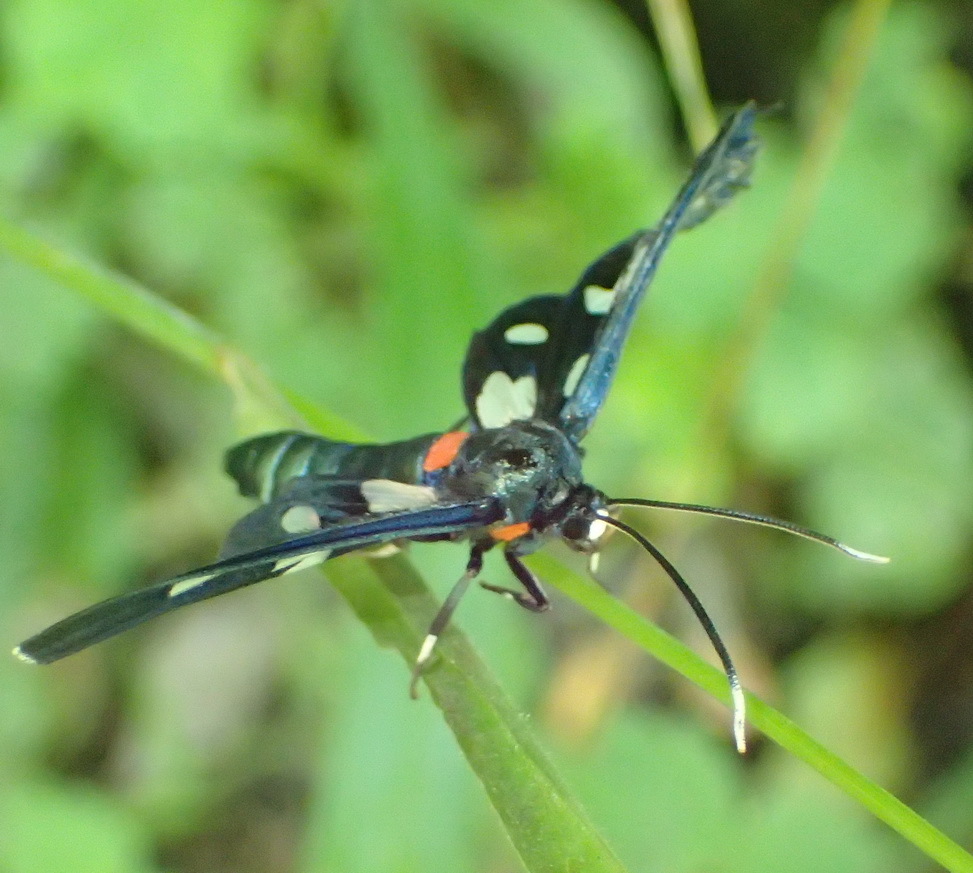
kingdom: Animalia
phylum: Arthropoda
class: Insecta
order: Lepidoptera
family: Erebidae
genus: Amata
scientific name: Amata kuhlweini
